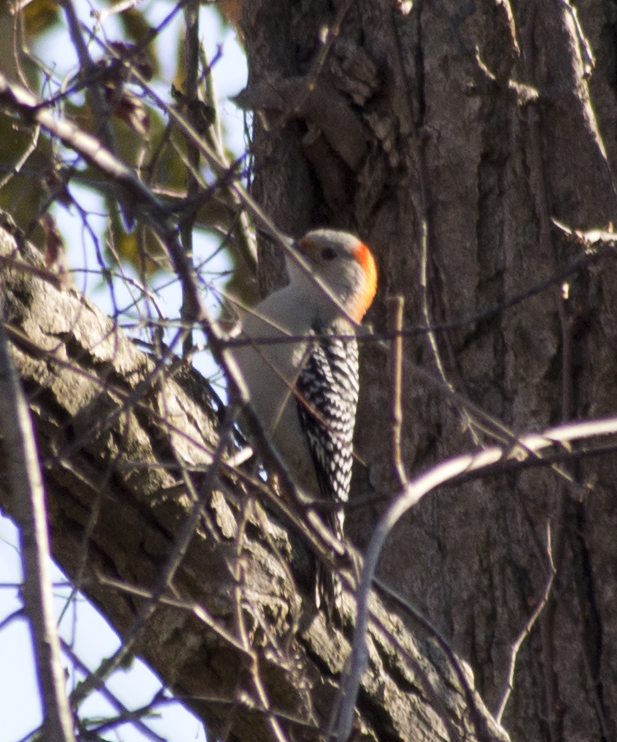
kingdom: Animalia
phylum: Chordata
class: Aves
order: Piciformes
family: Picidae
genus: Melanerpes
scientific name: Melanerpes carolinus
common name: Red-bellied woodpecker
